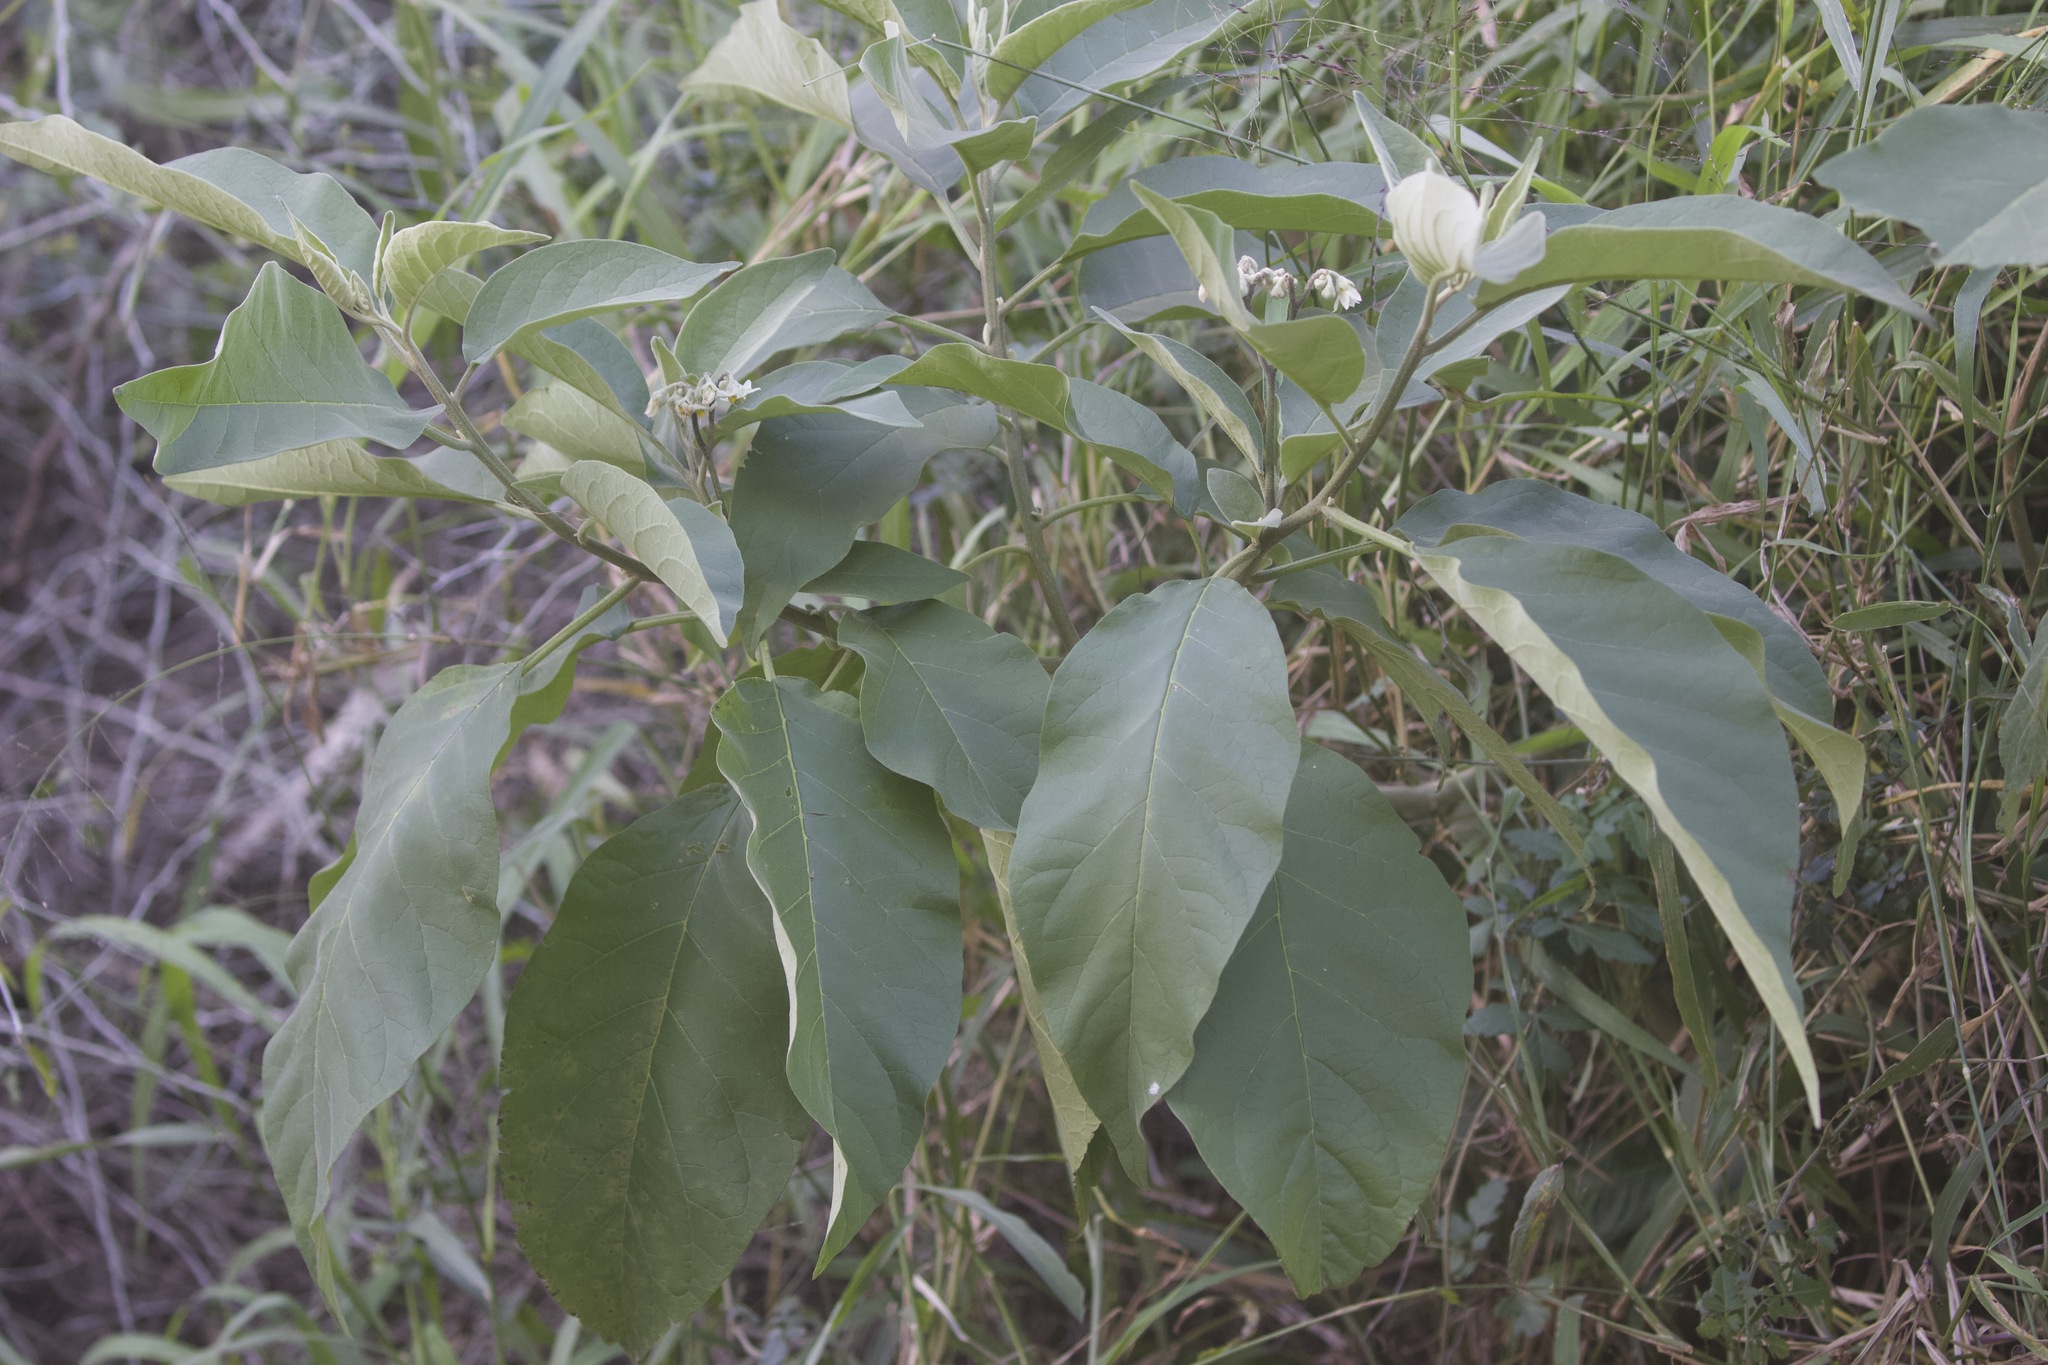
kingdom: Plantae
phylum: Tracheophyta
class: Magnoliopsida
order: Solanales
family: Solanaceae
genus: Solanum
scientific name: Solanum erianthum
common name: Tobacco-tree
